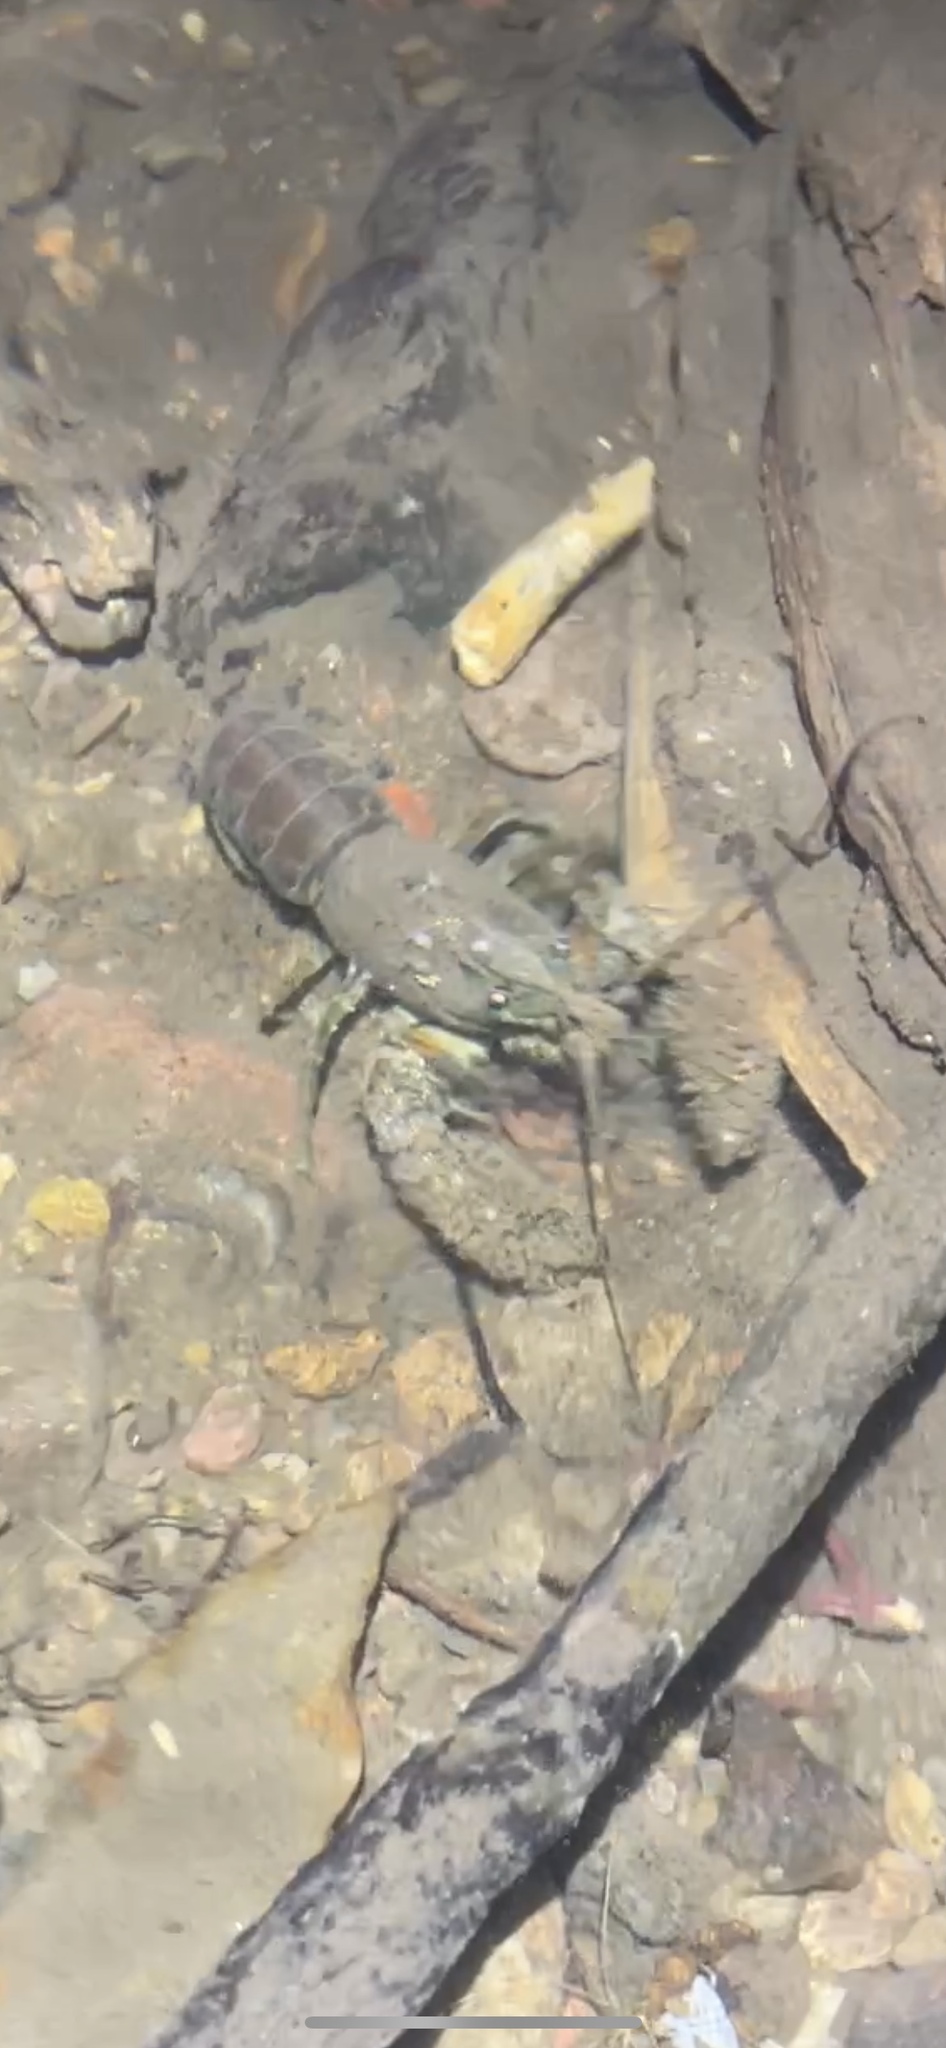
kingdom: Animalia
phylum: Arthropoda
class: Malacostraca
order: Decapoda
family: Parastacidae
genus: Paranephrops
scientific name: Paranephrops zealandicus
